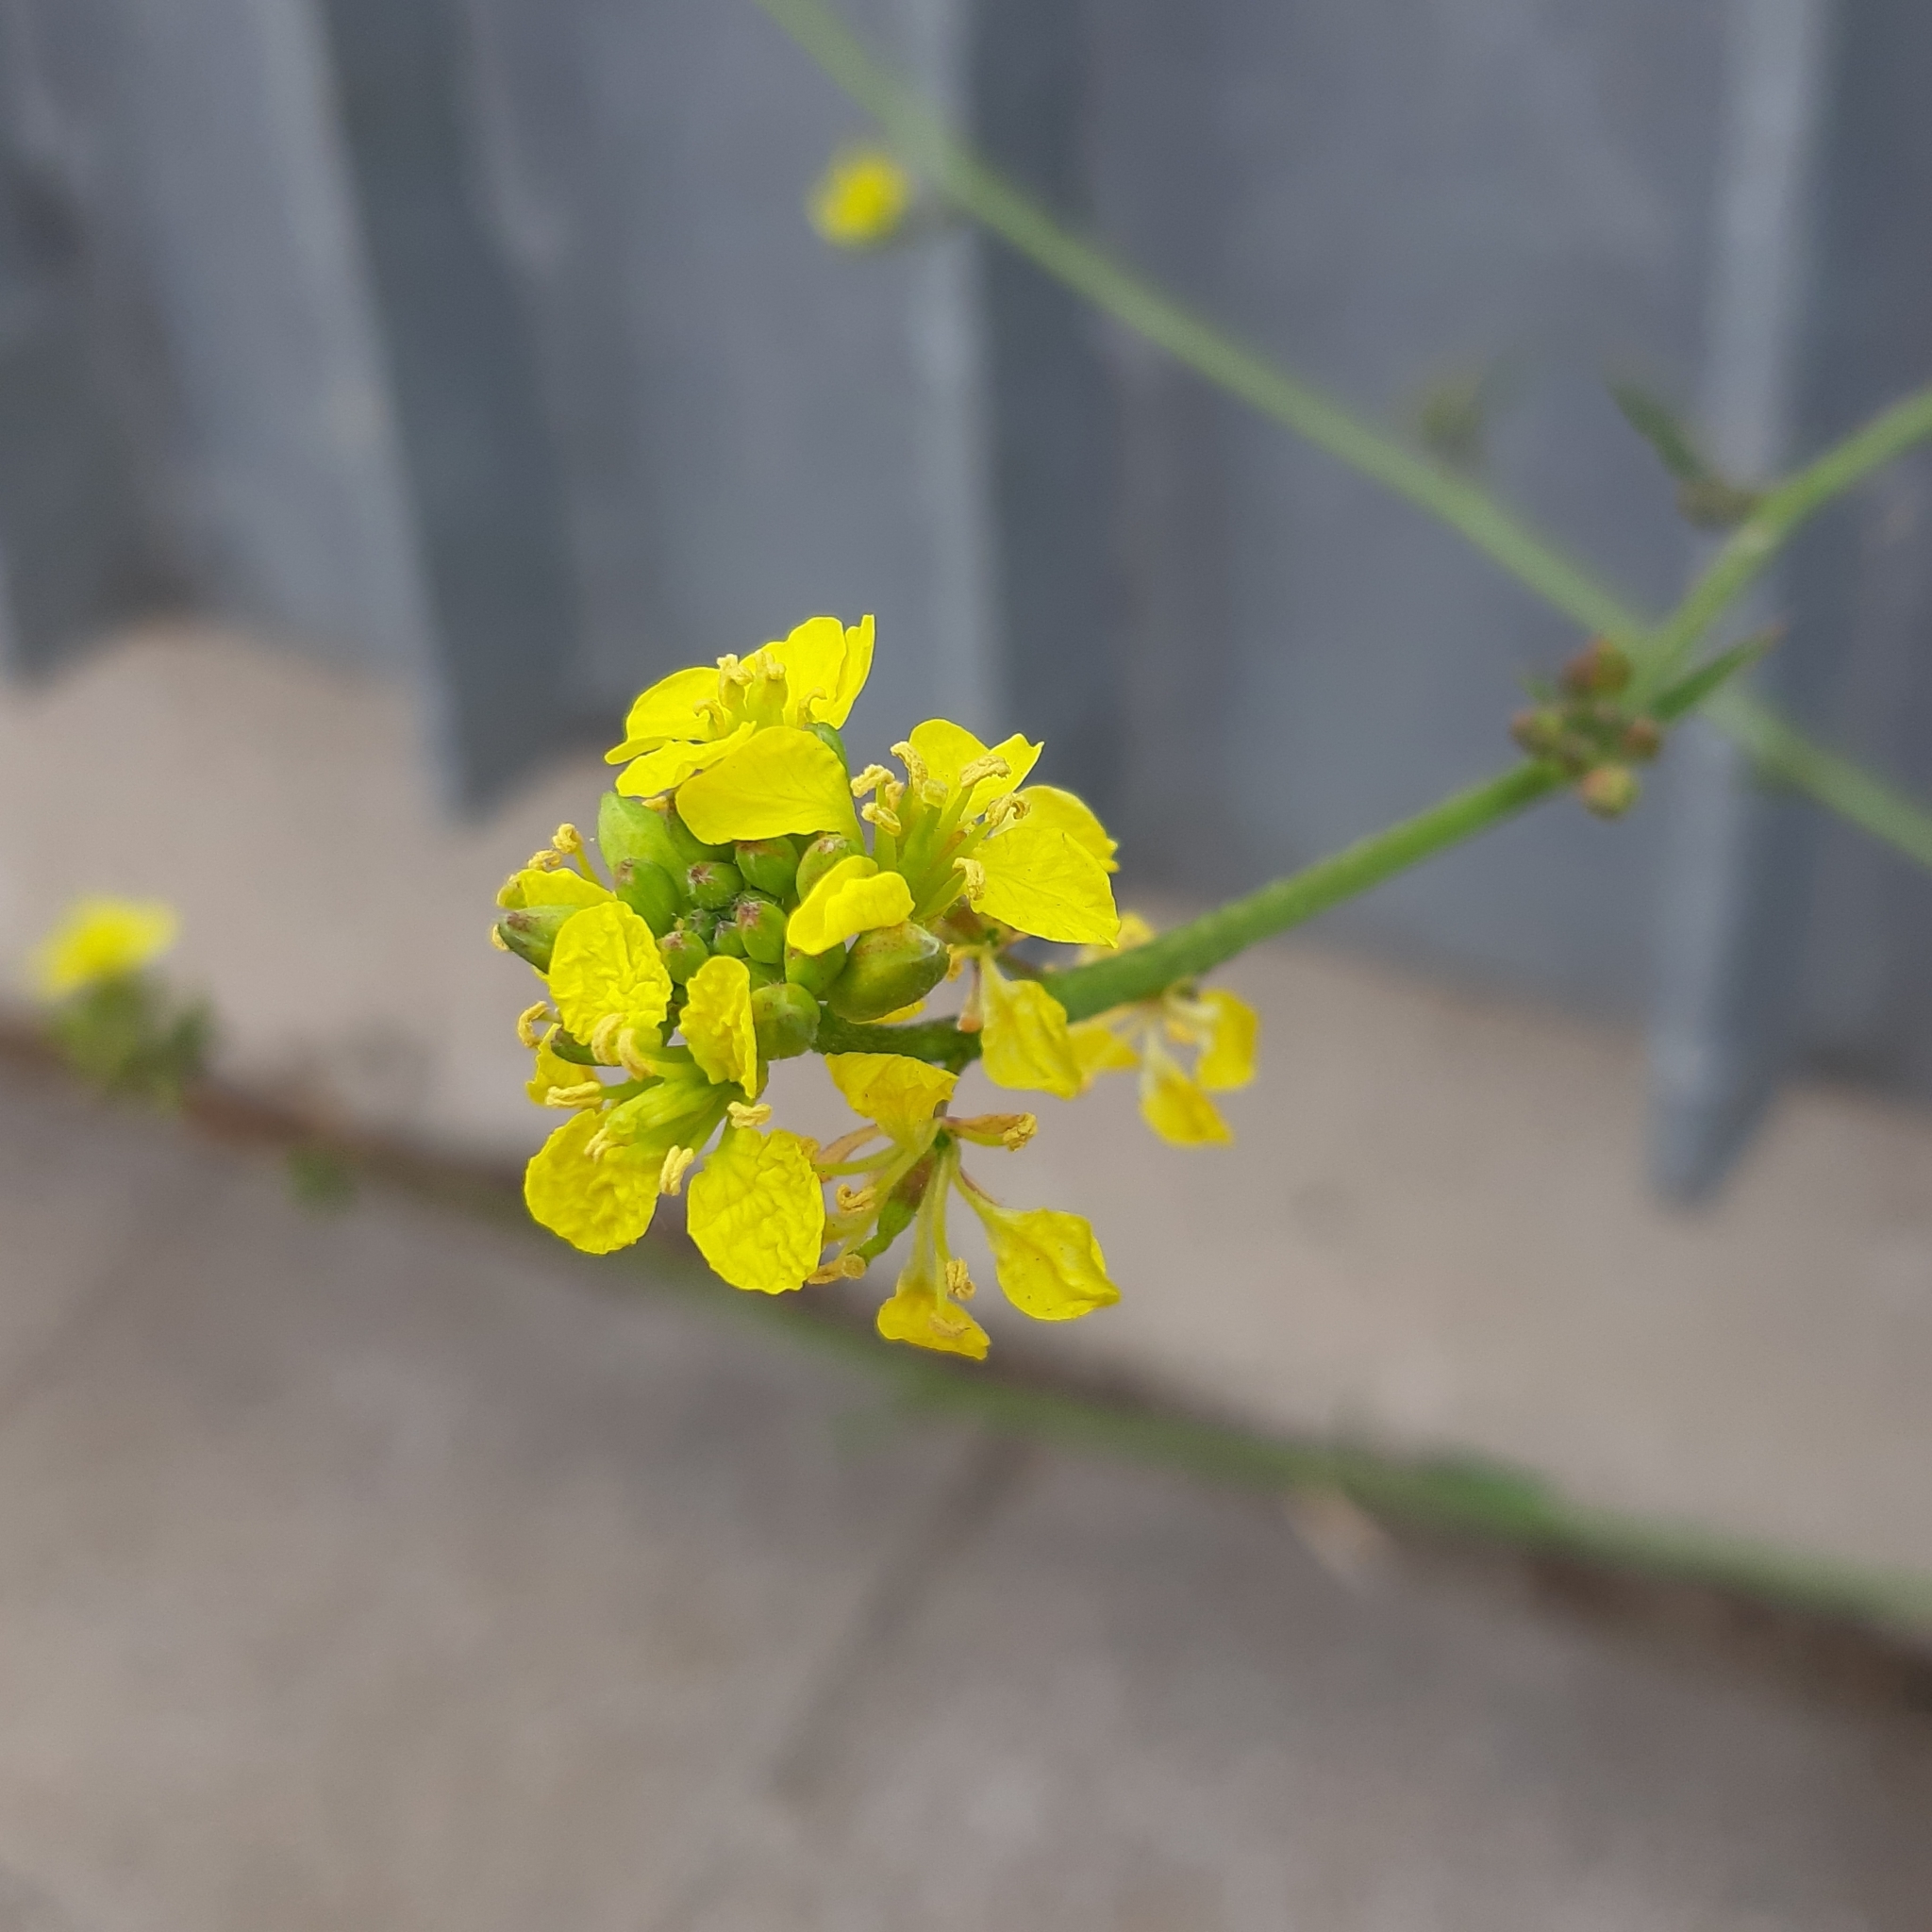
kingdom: Plantae
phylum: Tracheophyta
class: Magnoliopsida
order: Brassicales
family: Brassicaceae
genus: Sinapis
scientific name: Sinapis arvensis
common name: Charlock
